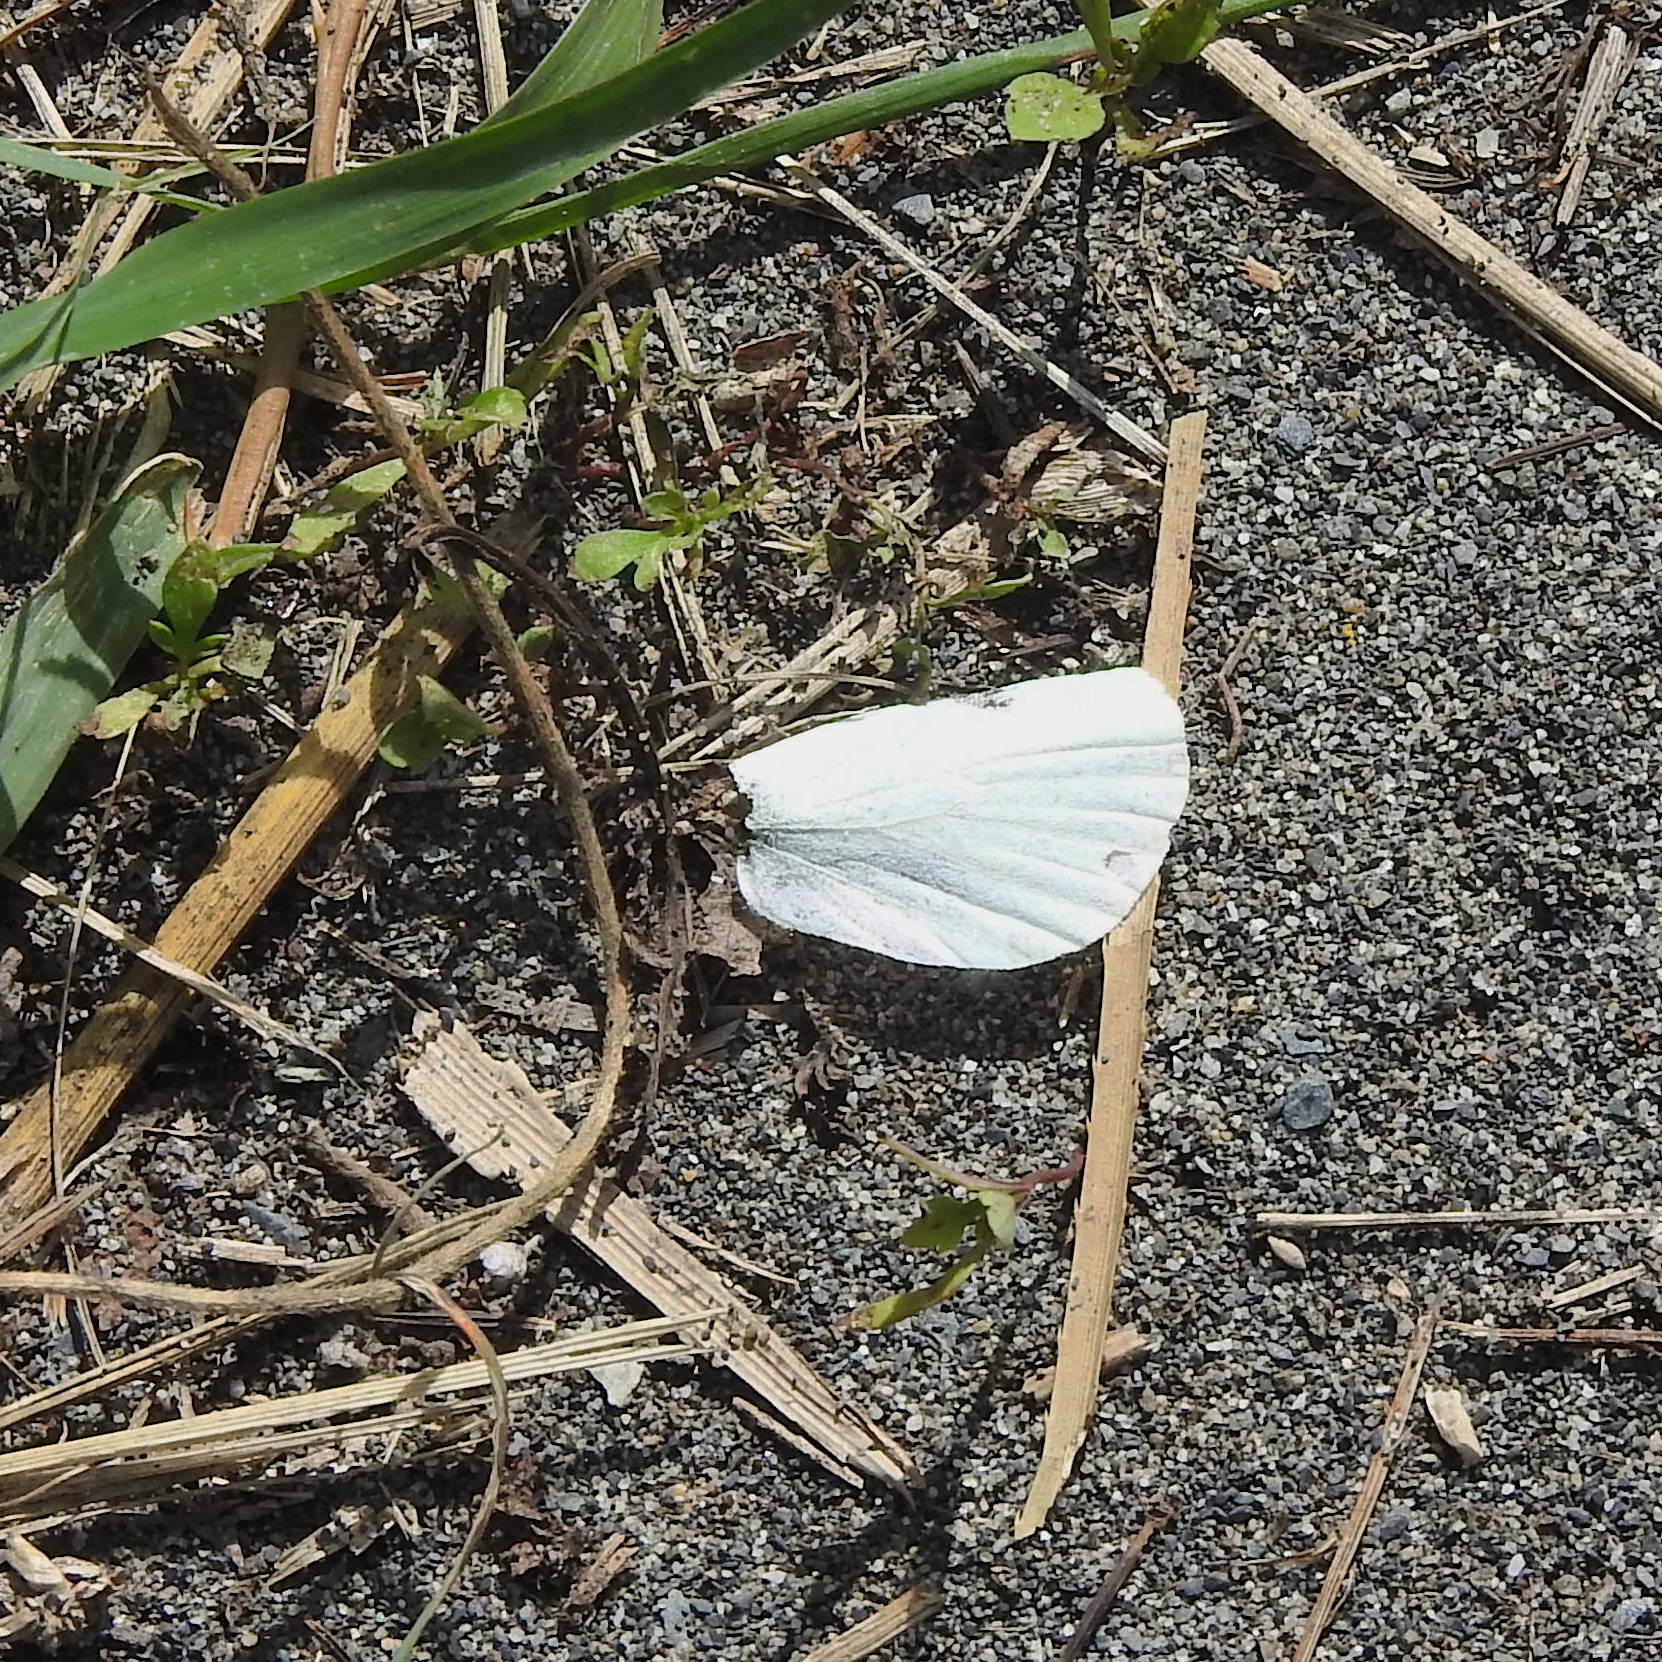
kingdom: Animalia
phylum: Arthropoda
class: Insecta
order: Lepidoptera
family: Pieridae
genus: Pieris
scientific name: Pieris rapae
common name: Small white
